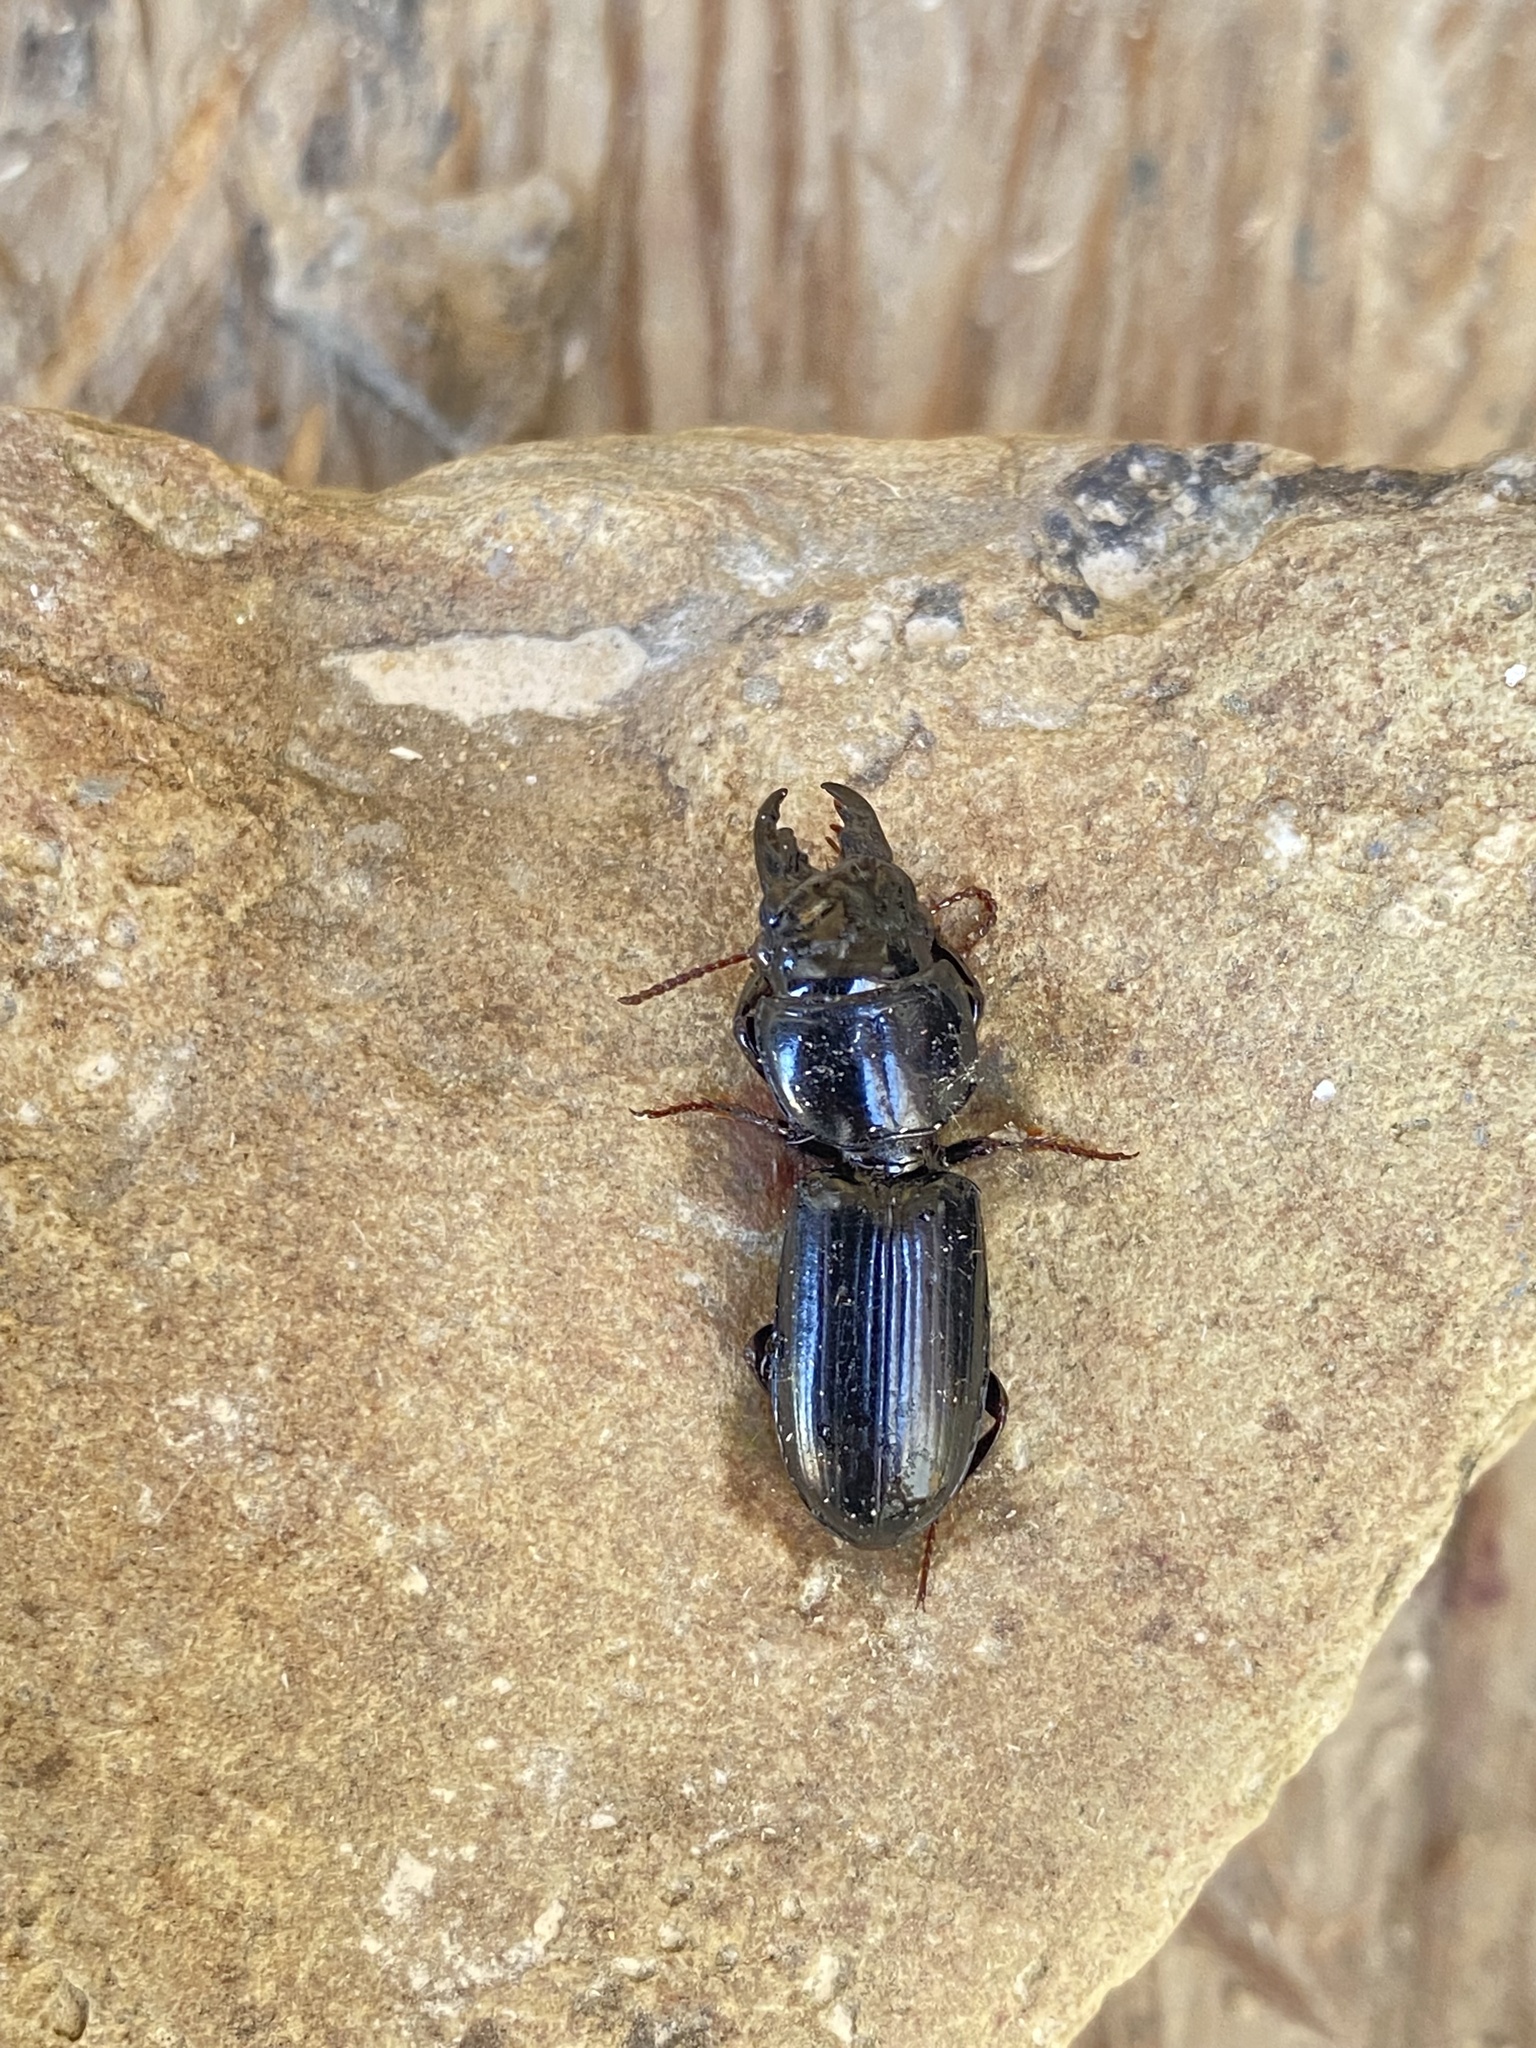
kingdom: Animalia
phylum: Arthropoda
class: Insecta
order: Coleoptera
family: Carabidae
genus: Scarites
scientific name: Scarites subterraneus
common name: Big-headed ground beetle
